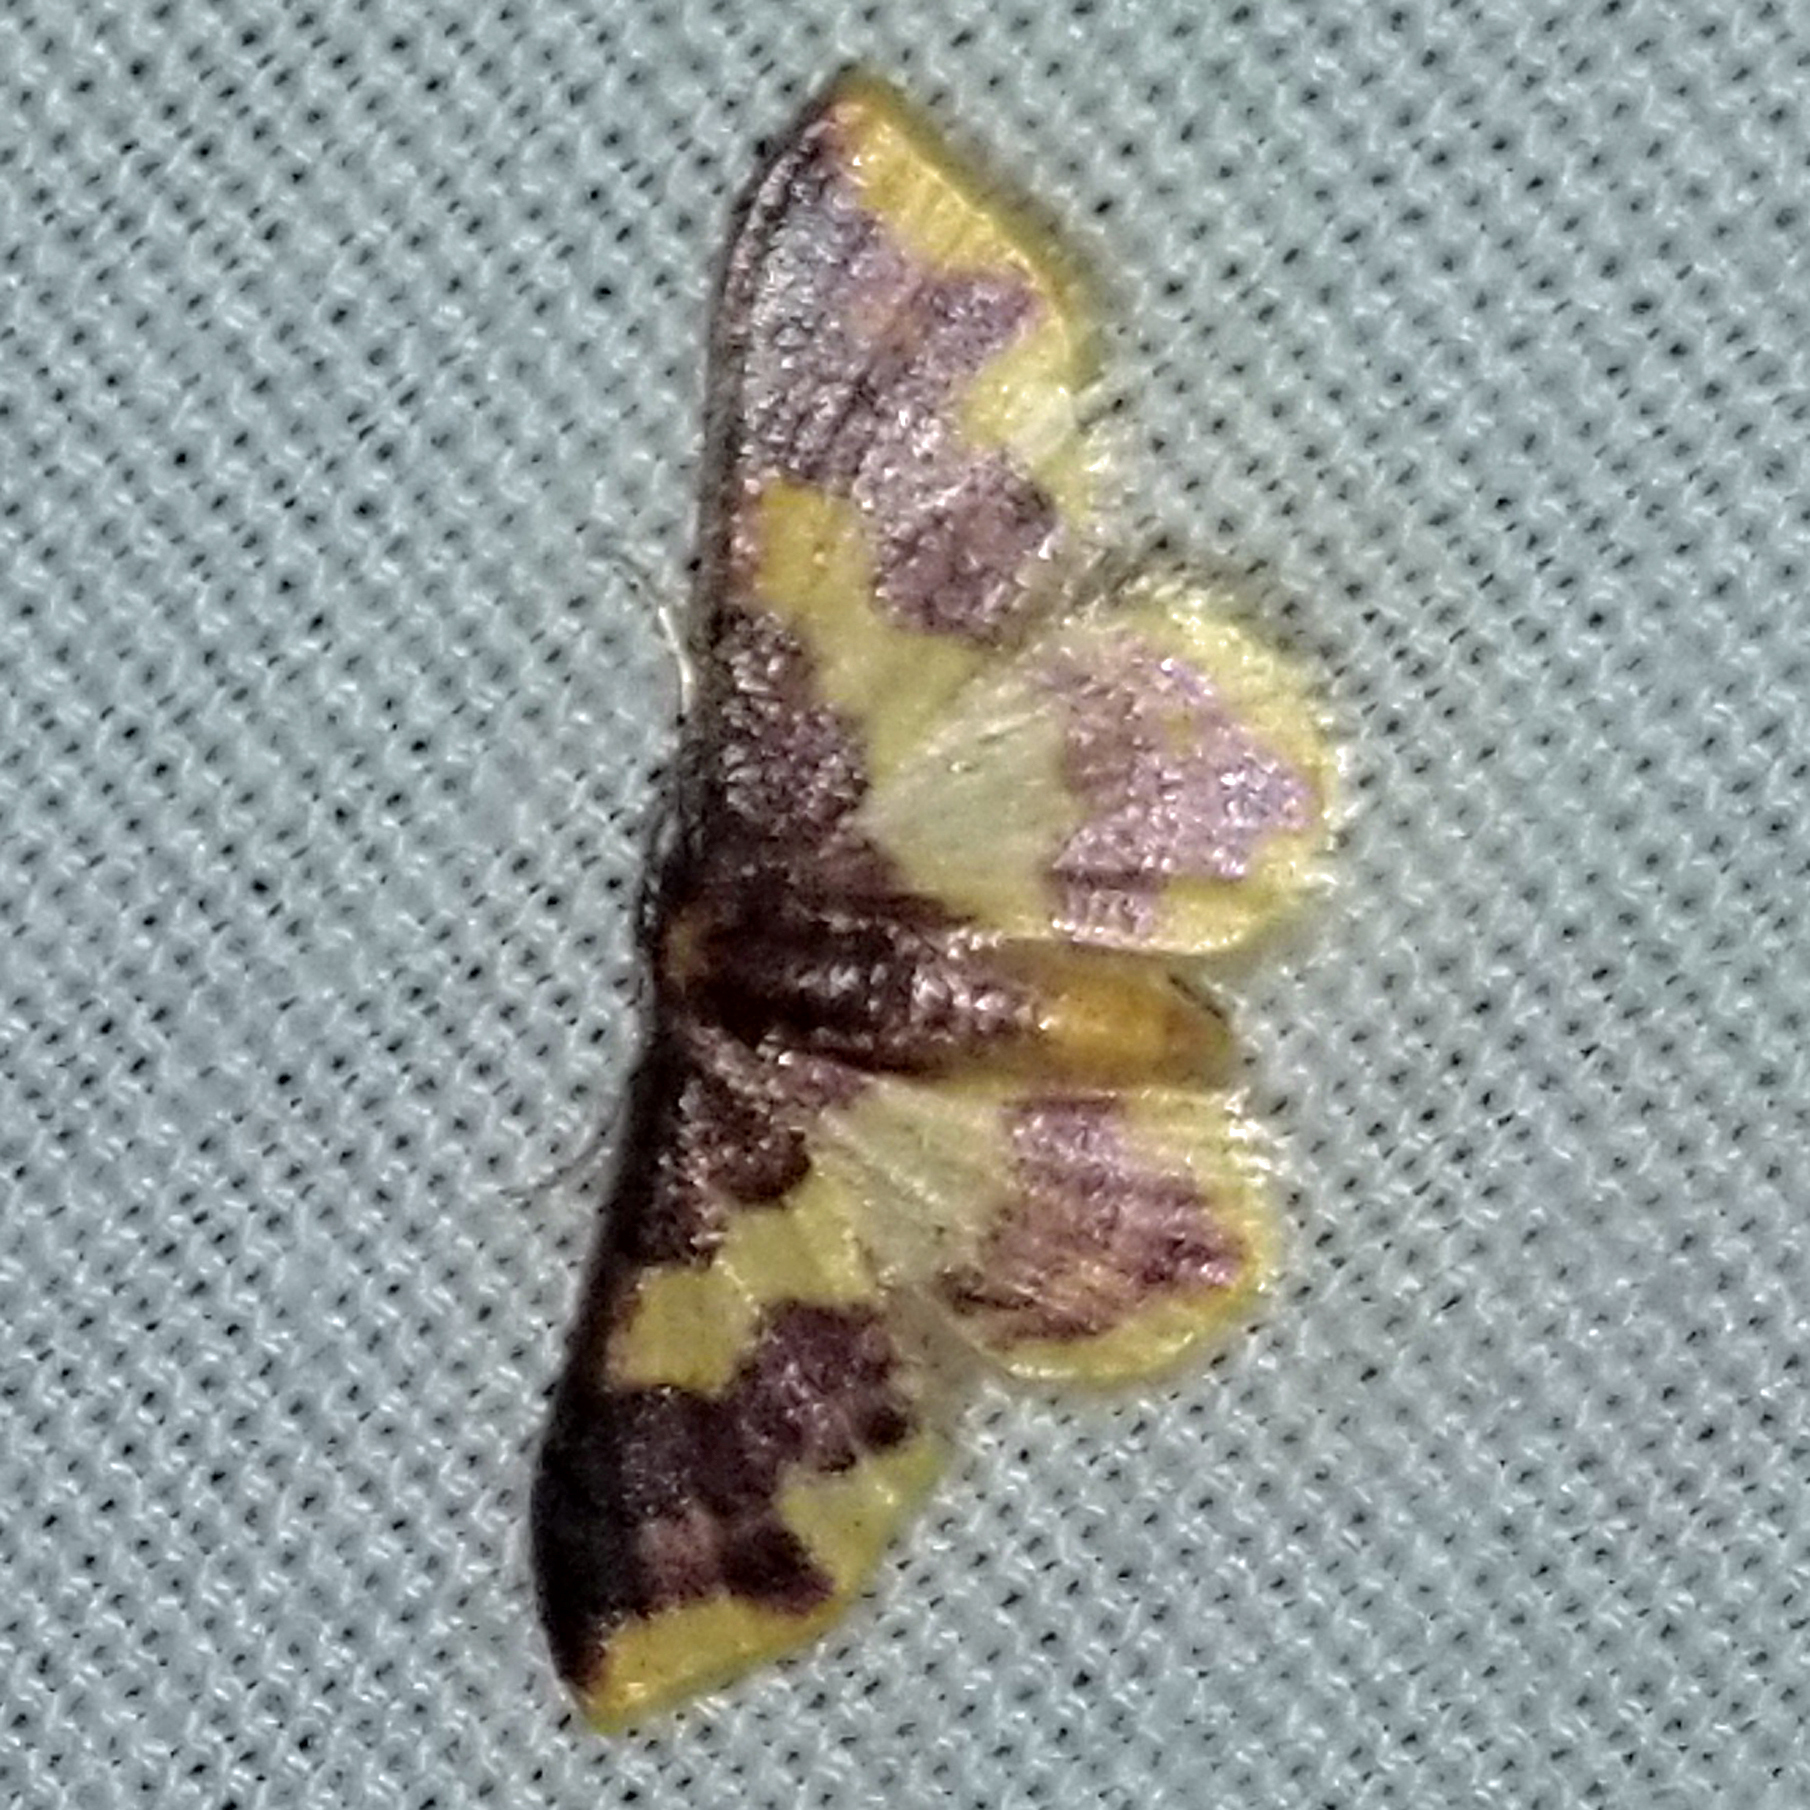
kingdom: Animalia
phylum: Arthropoda
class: Insecta
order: Lepidoptera
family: Geometridae
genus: Lophosis
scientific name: Lophosis labeculata
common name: Stained lophosis moth
